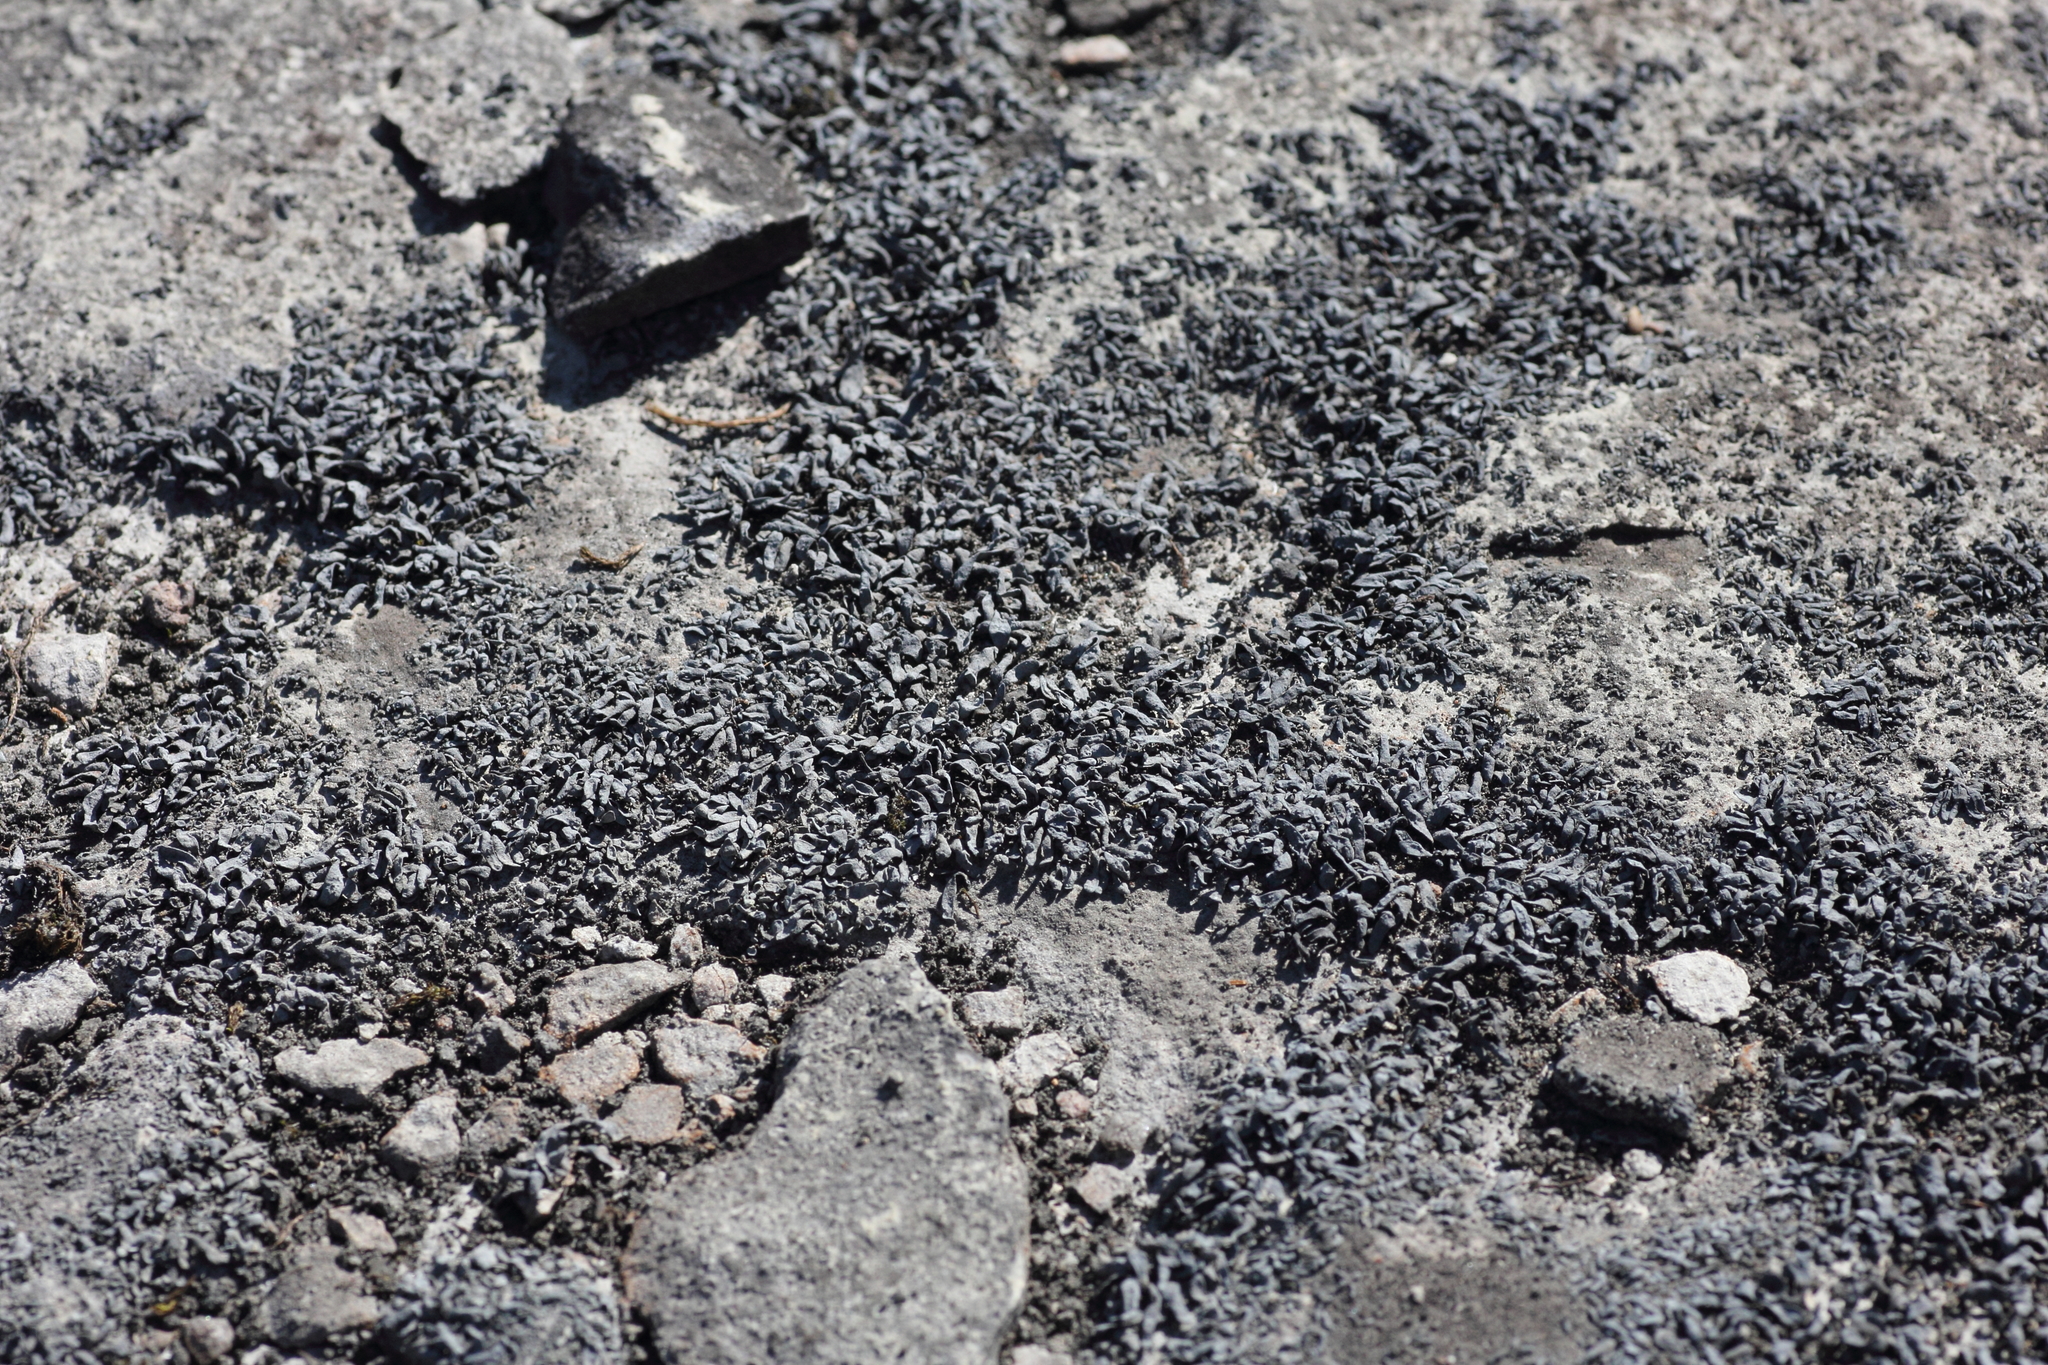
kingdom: Fungi
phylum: Ascomycota
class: Lichinomycetes
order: Lichinales
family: Lichinaceae
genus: Thyrea
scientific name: Thyrea confusa
